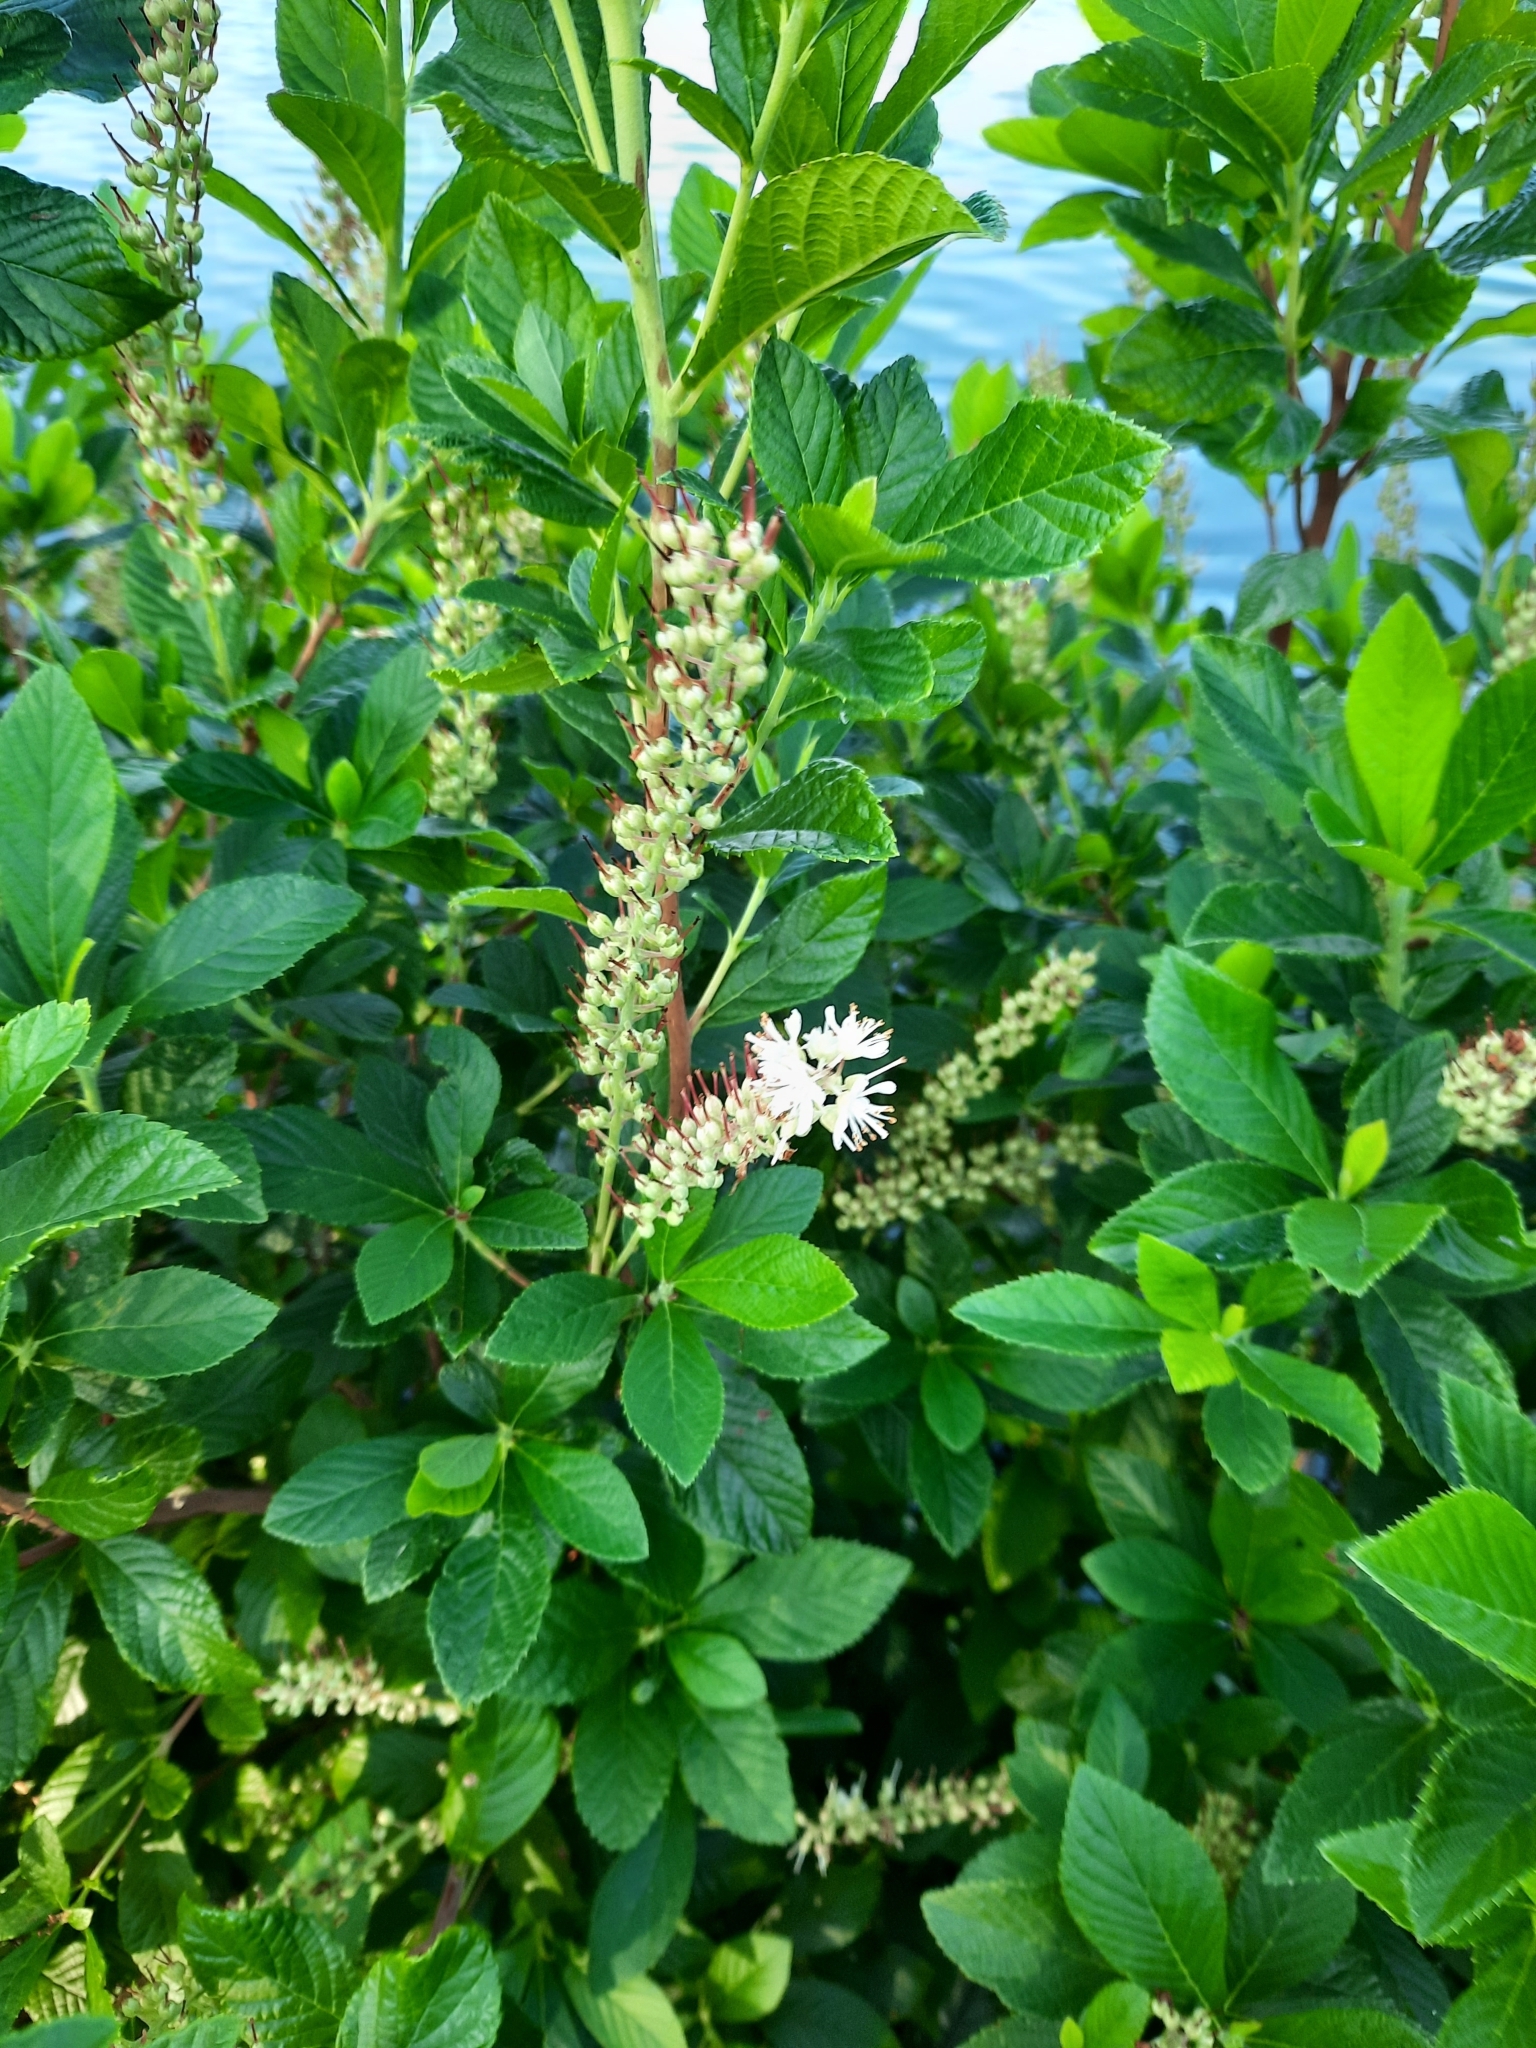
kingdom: Plantae
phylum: Tracheophyta
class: Magnoliopsida
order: Ericales
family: Clethraceae
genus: Clethra
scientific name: Clethra alnifolia
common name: Sweet pepperbush
